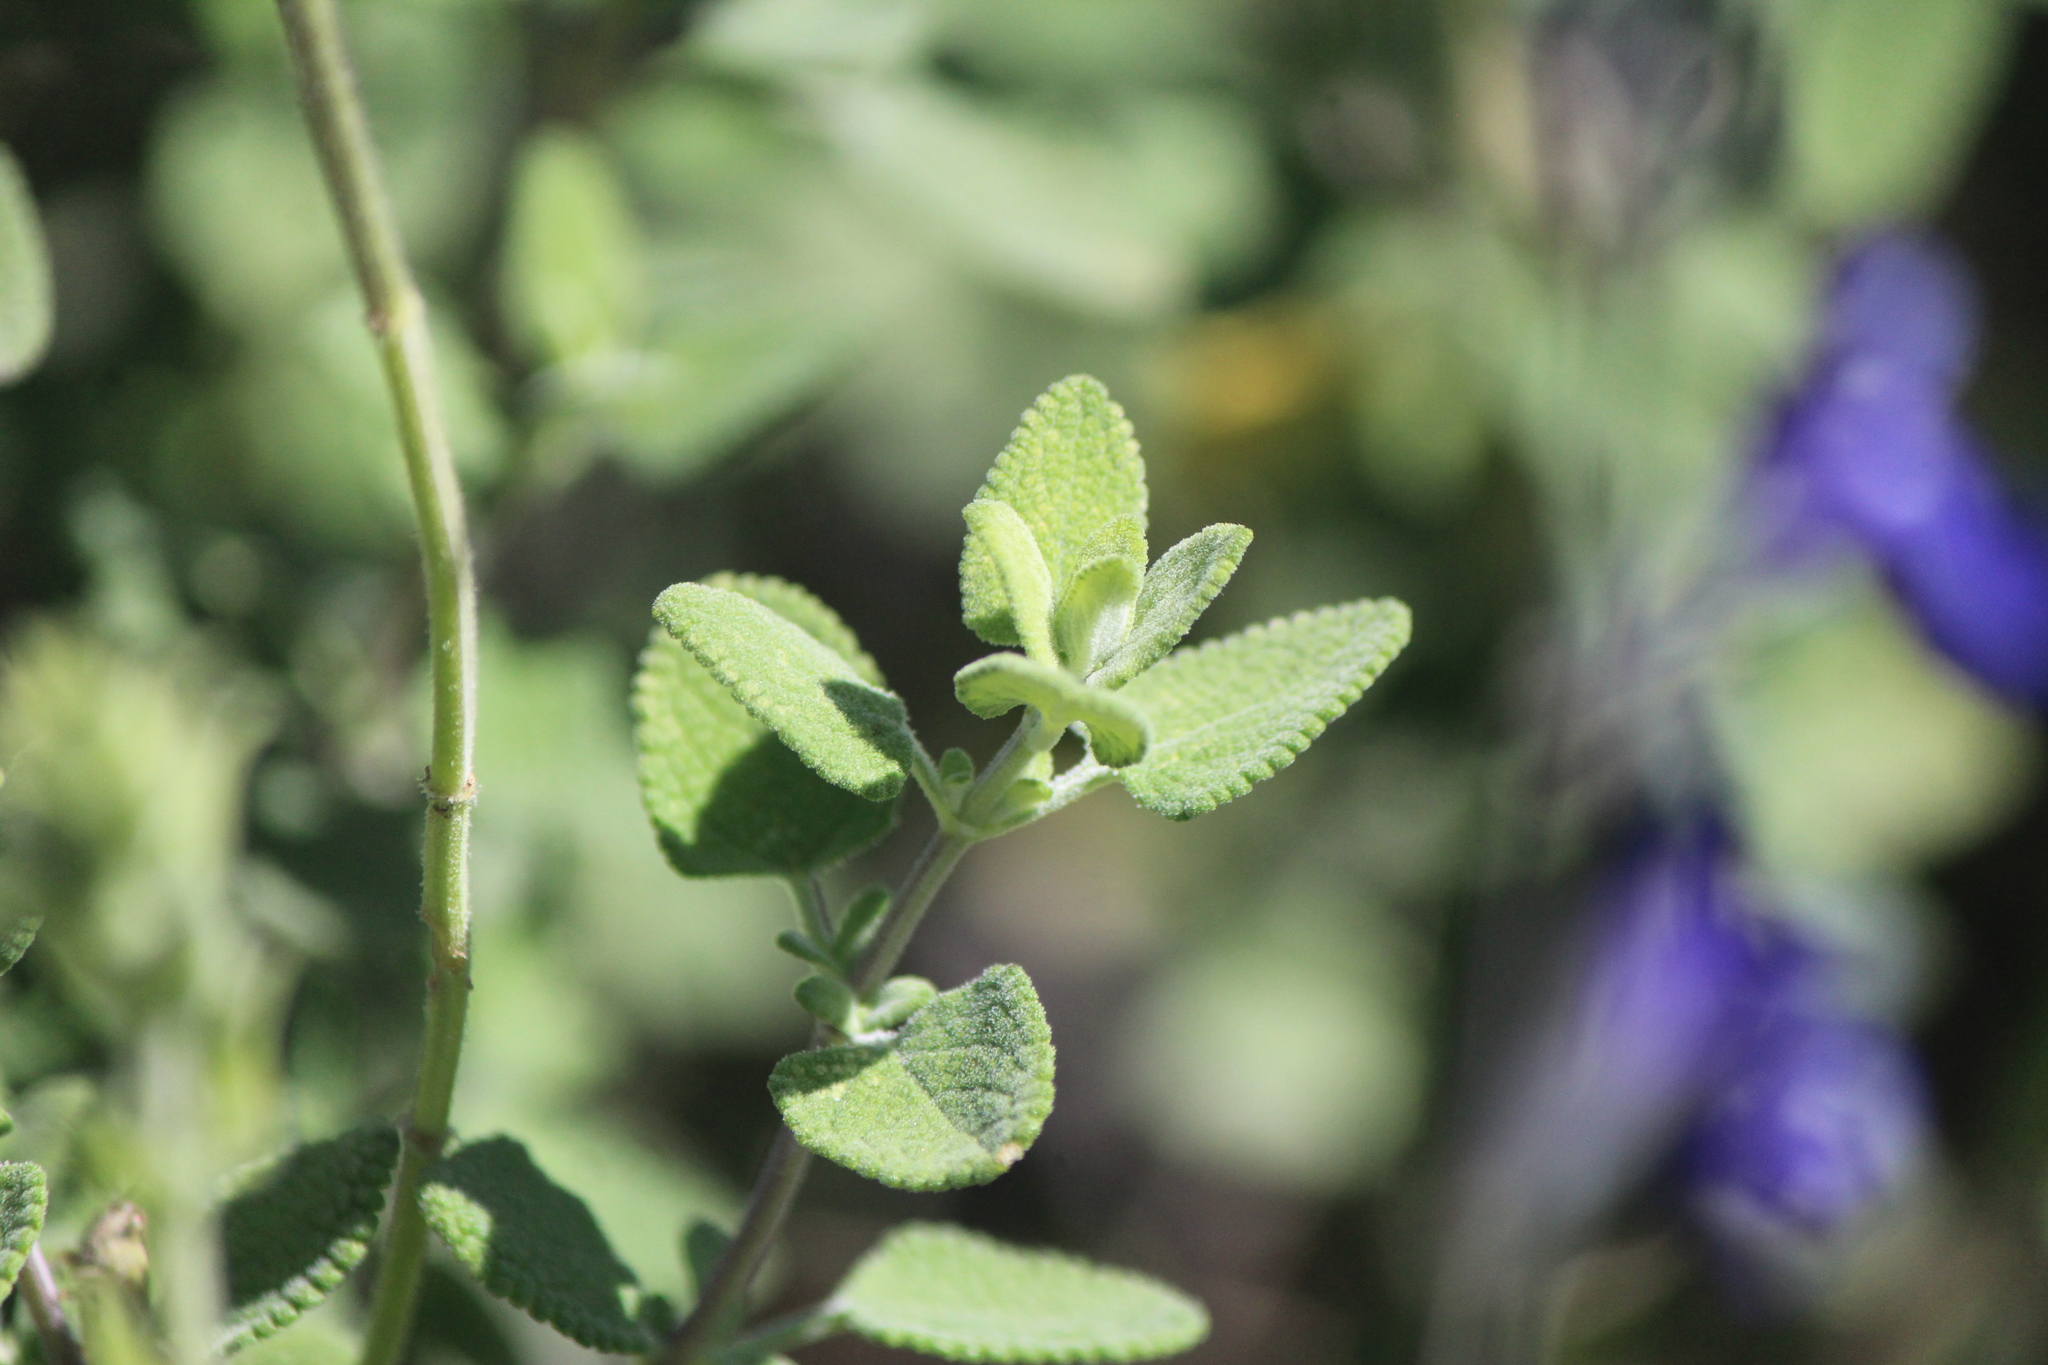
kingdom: Plantae
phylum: Tracheophyta
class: Magnoliopsida
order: Lamiales
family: Lamiaceae
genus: Salvia
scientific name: Salvia chamaedryoides
